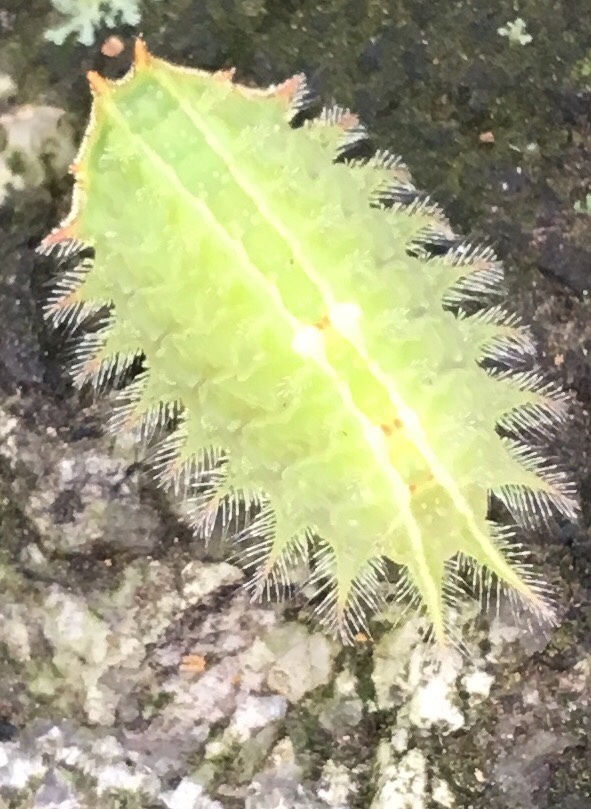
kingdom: Animalia
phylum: Arthropoda
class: Insecta
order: Lepidoptera
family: Limacodidae
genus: Isa
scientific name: Isa textula
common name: Crowned slug moth
